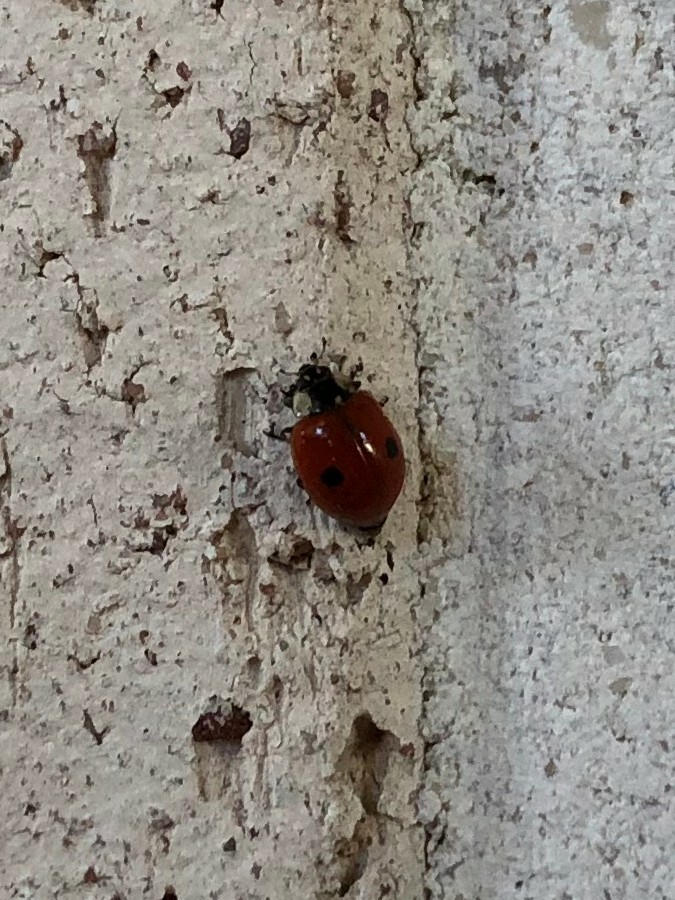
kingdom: Animalia
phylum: Arthropoda
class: Insecta
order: Coleoptera
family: Coccinellidae
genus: Adalia
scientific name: Adalia bipunctata
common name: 2-spot ladybird
